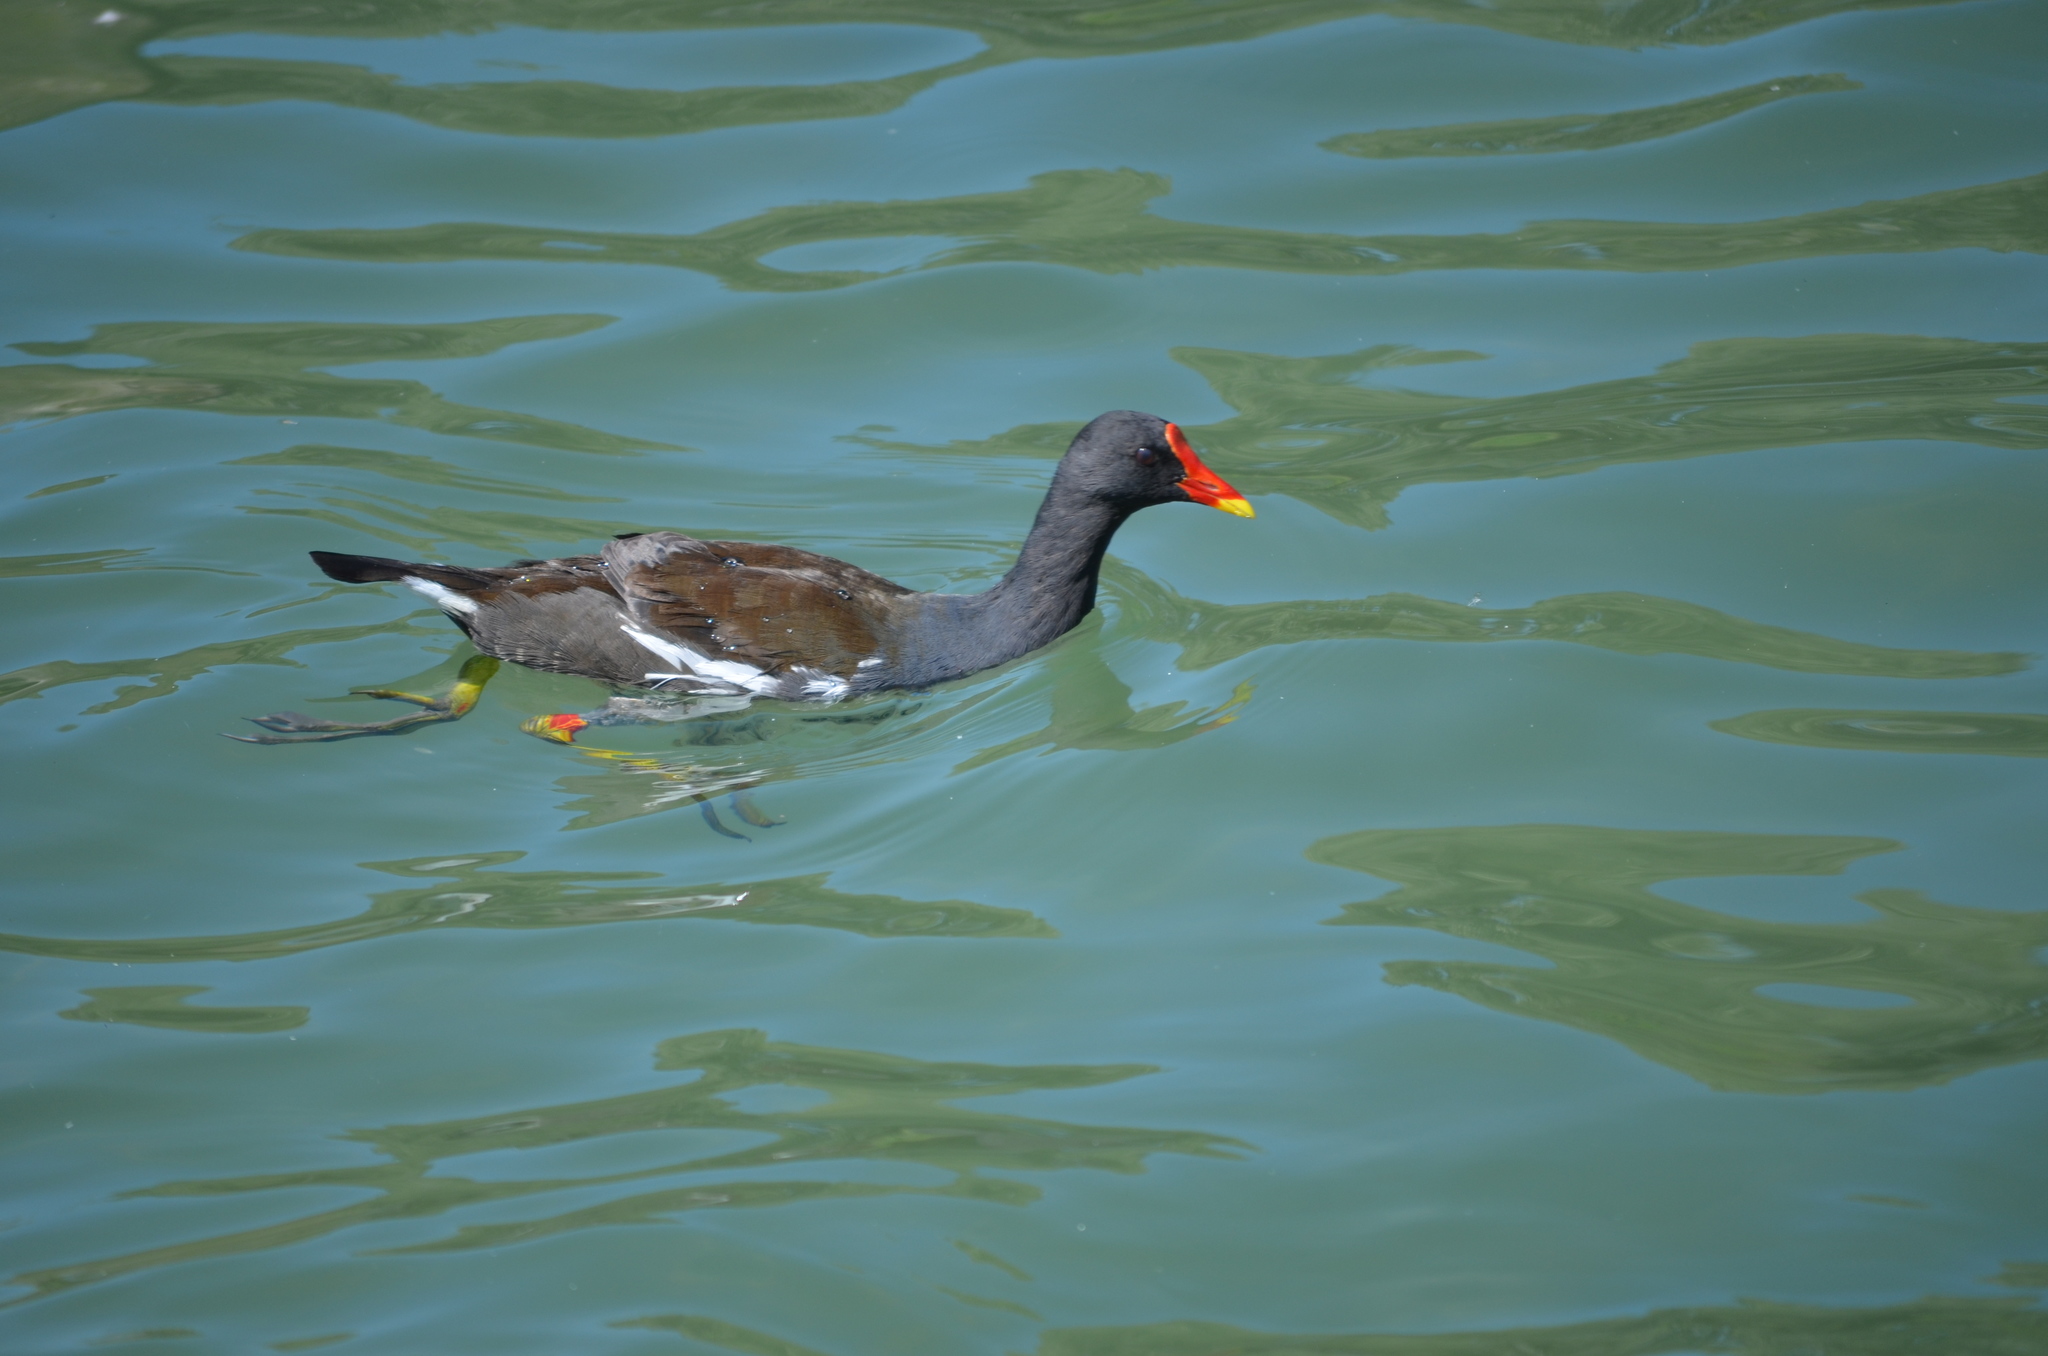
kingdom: Animalia
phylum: Chordata
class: Aves
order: Gruiformes
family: Rallidae
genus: Gallinula
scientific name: Gallinula chloropus
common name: Common moorhen
